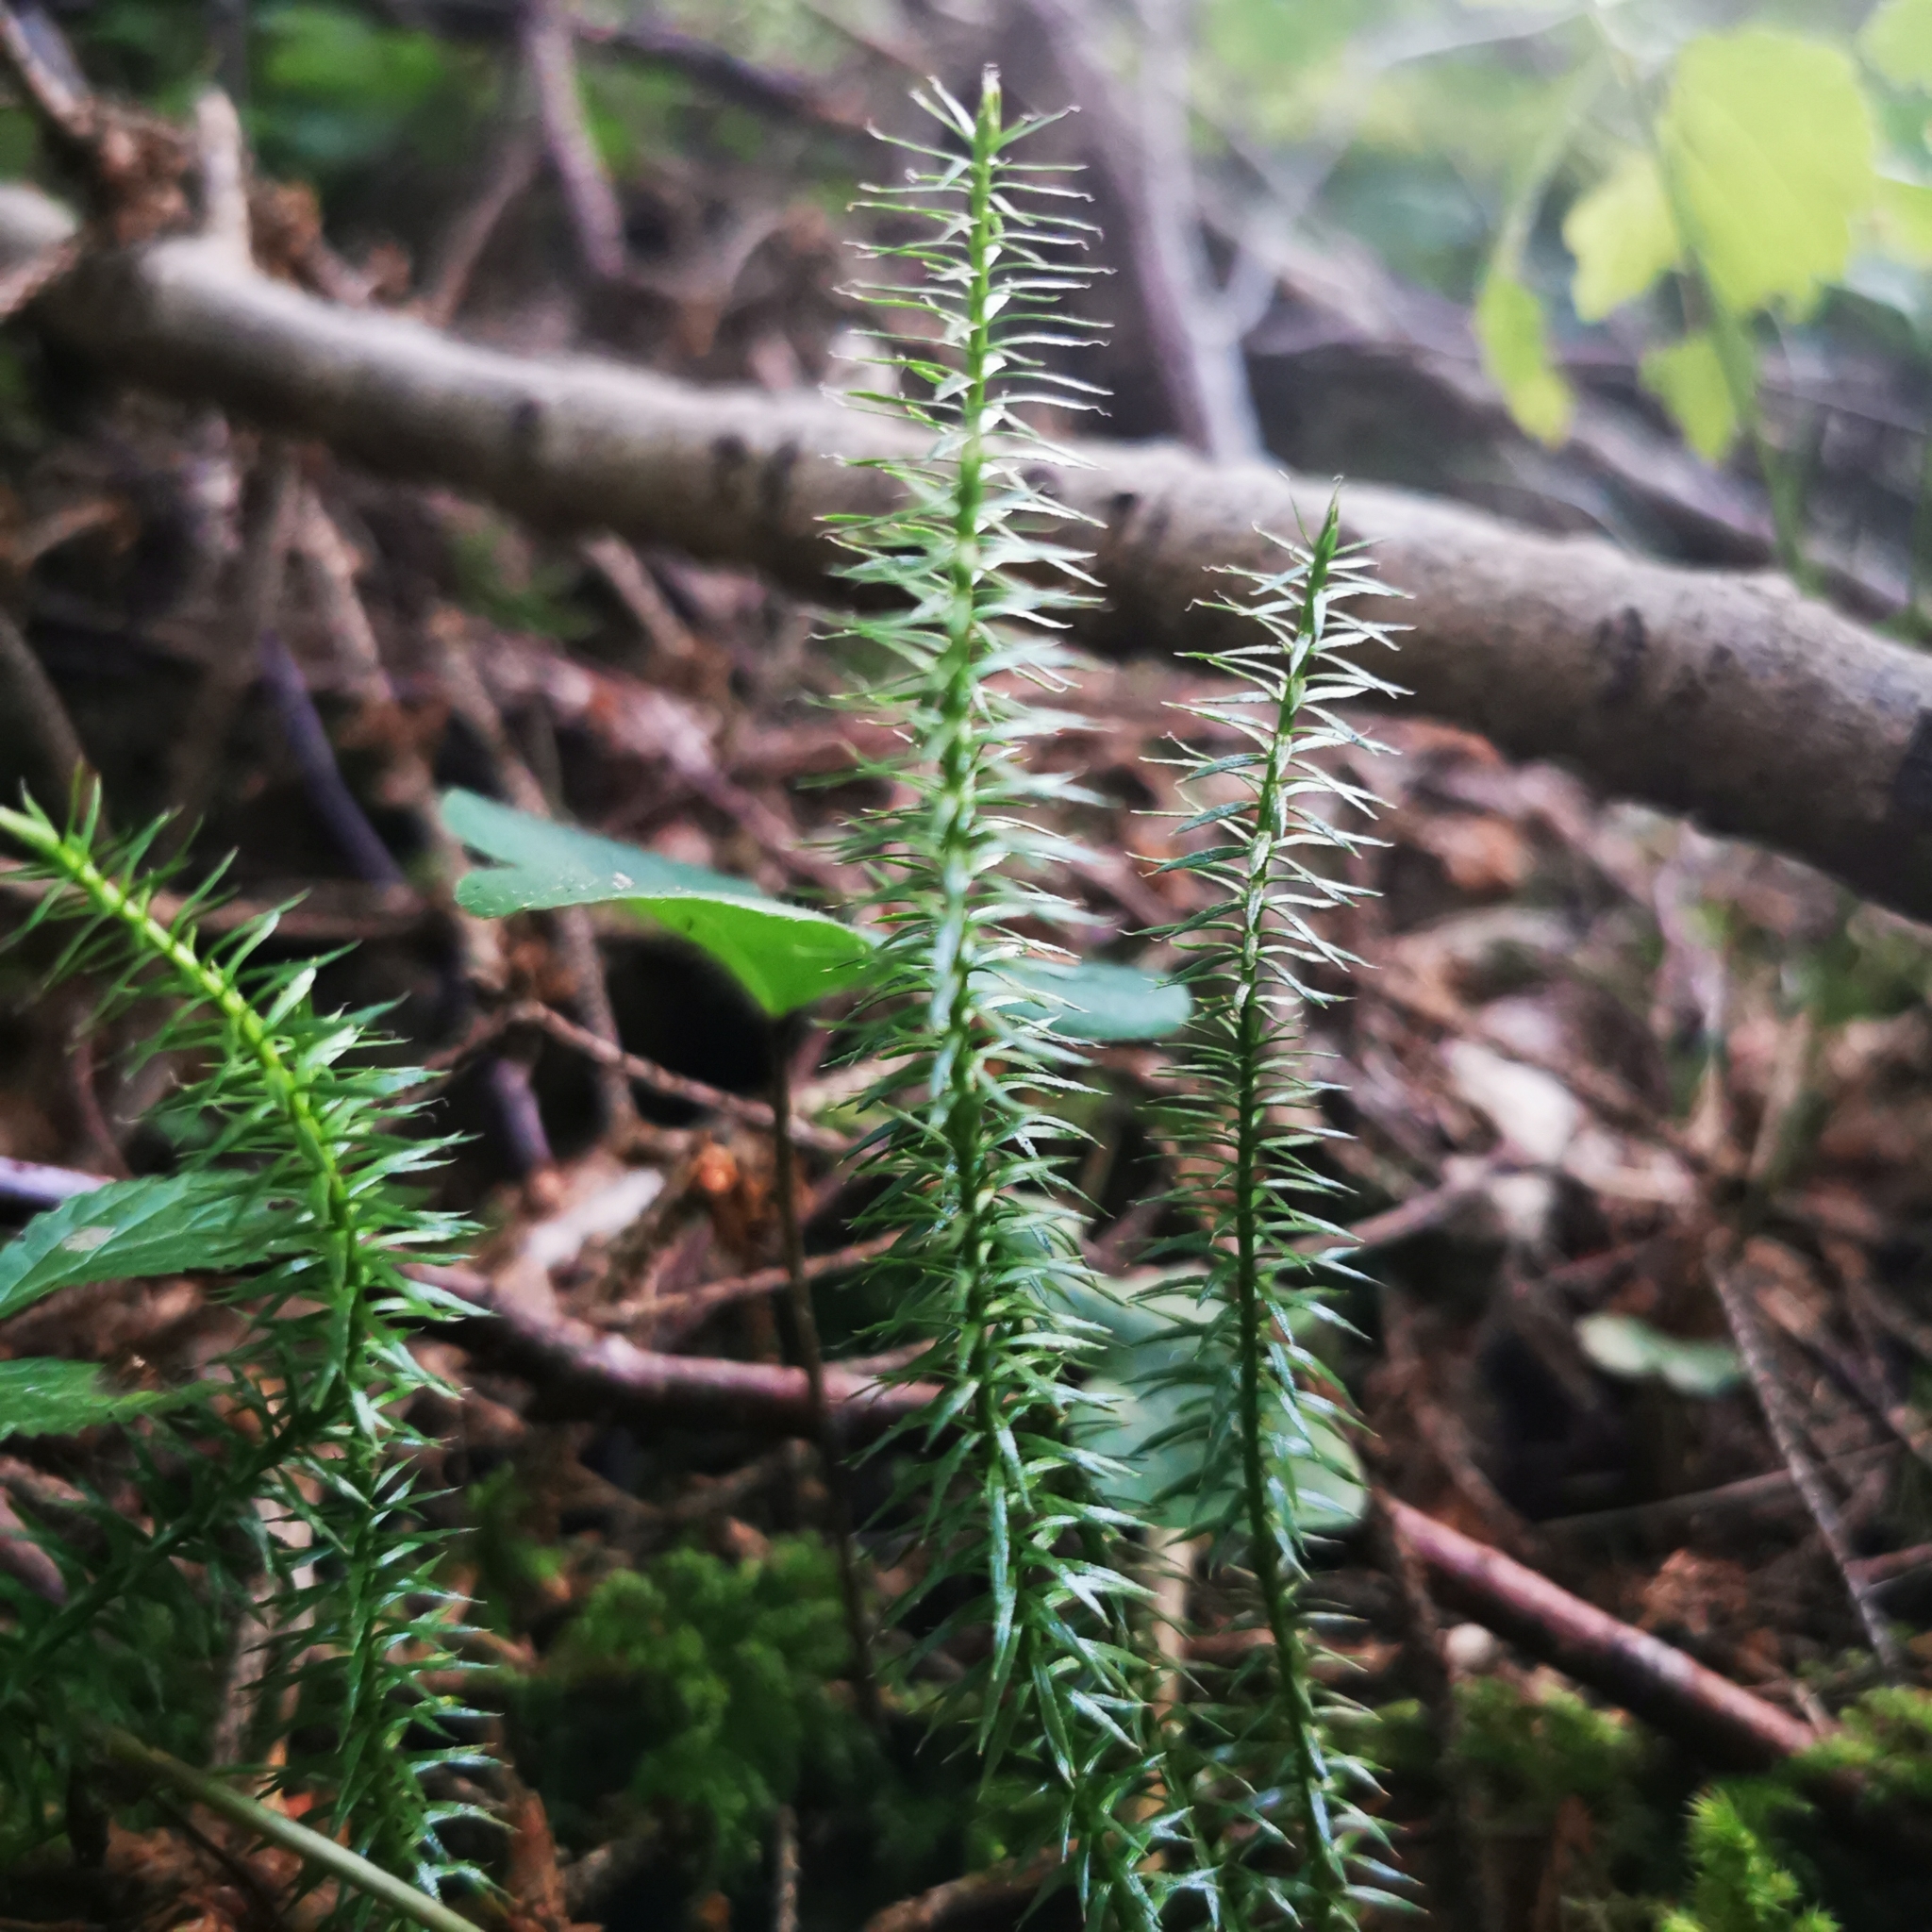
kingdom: Plantae
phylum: Tracheophyta
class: Lycopodiopsida
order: Lycopodiales
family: Lycopodiaceae
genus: Spinulum
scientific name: Spinulum annotinum
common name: Interrupted club-moss
